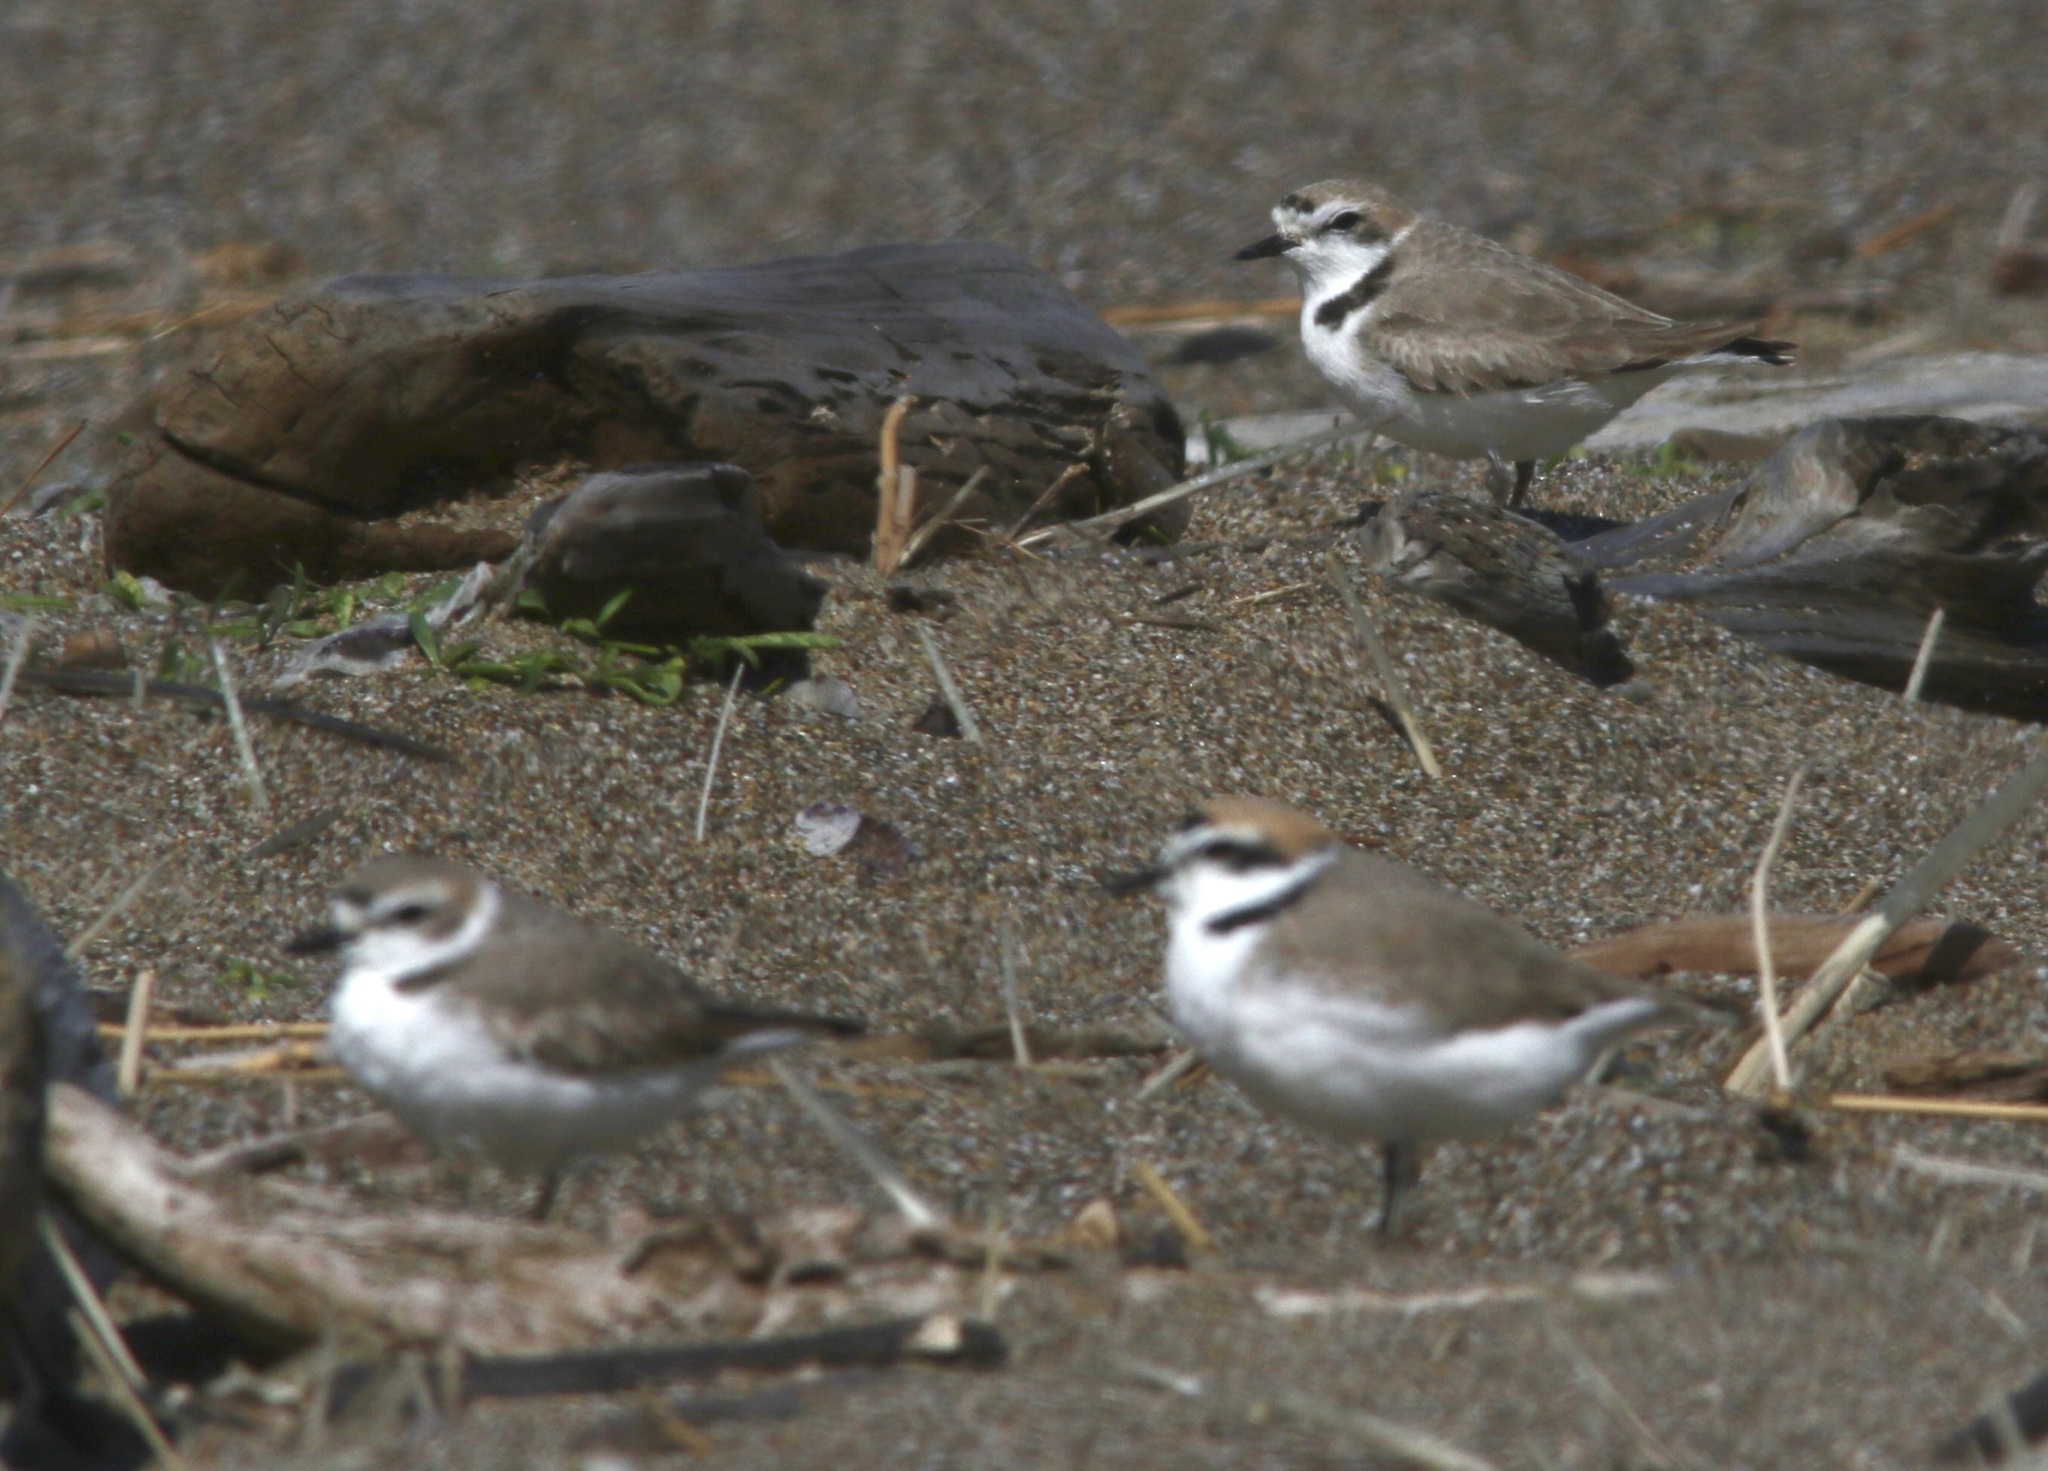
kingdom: Animalia
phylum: Chordata
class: Aves
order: Charadriiformes
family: Charadriidae
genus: Anarhynchus
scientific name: Anarhynchus
